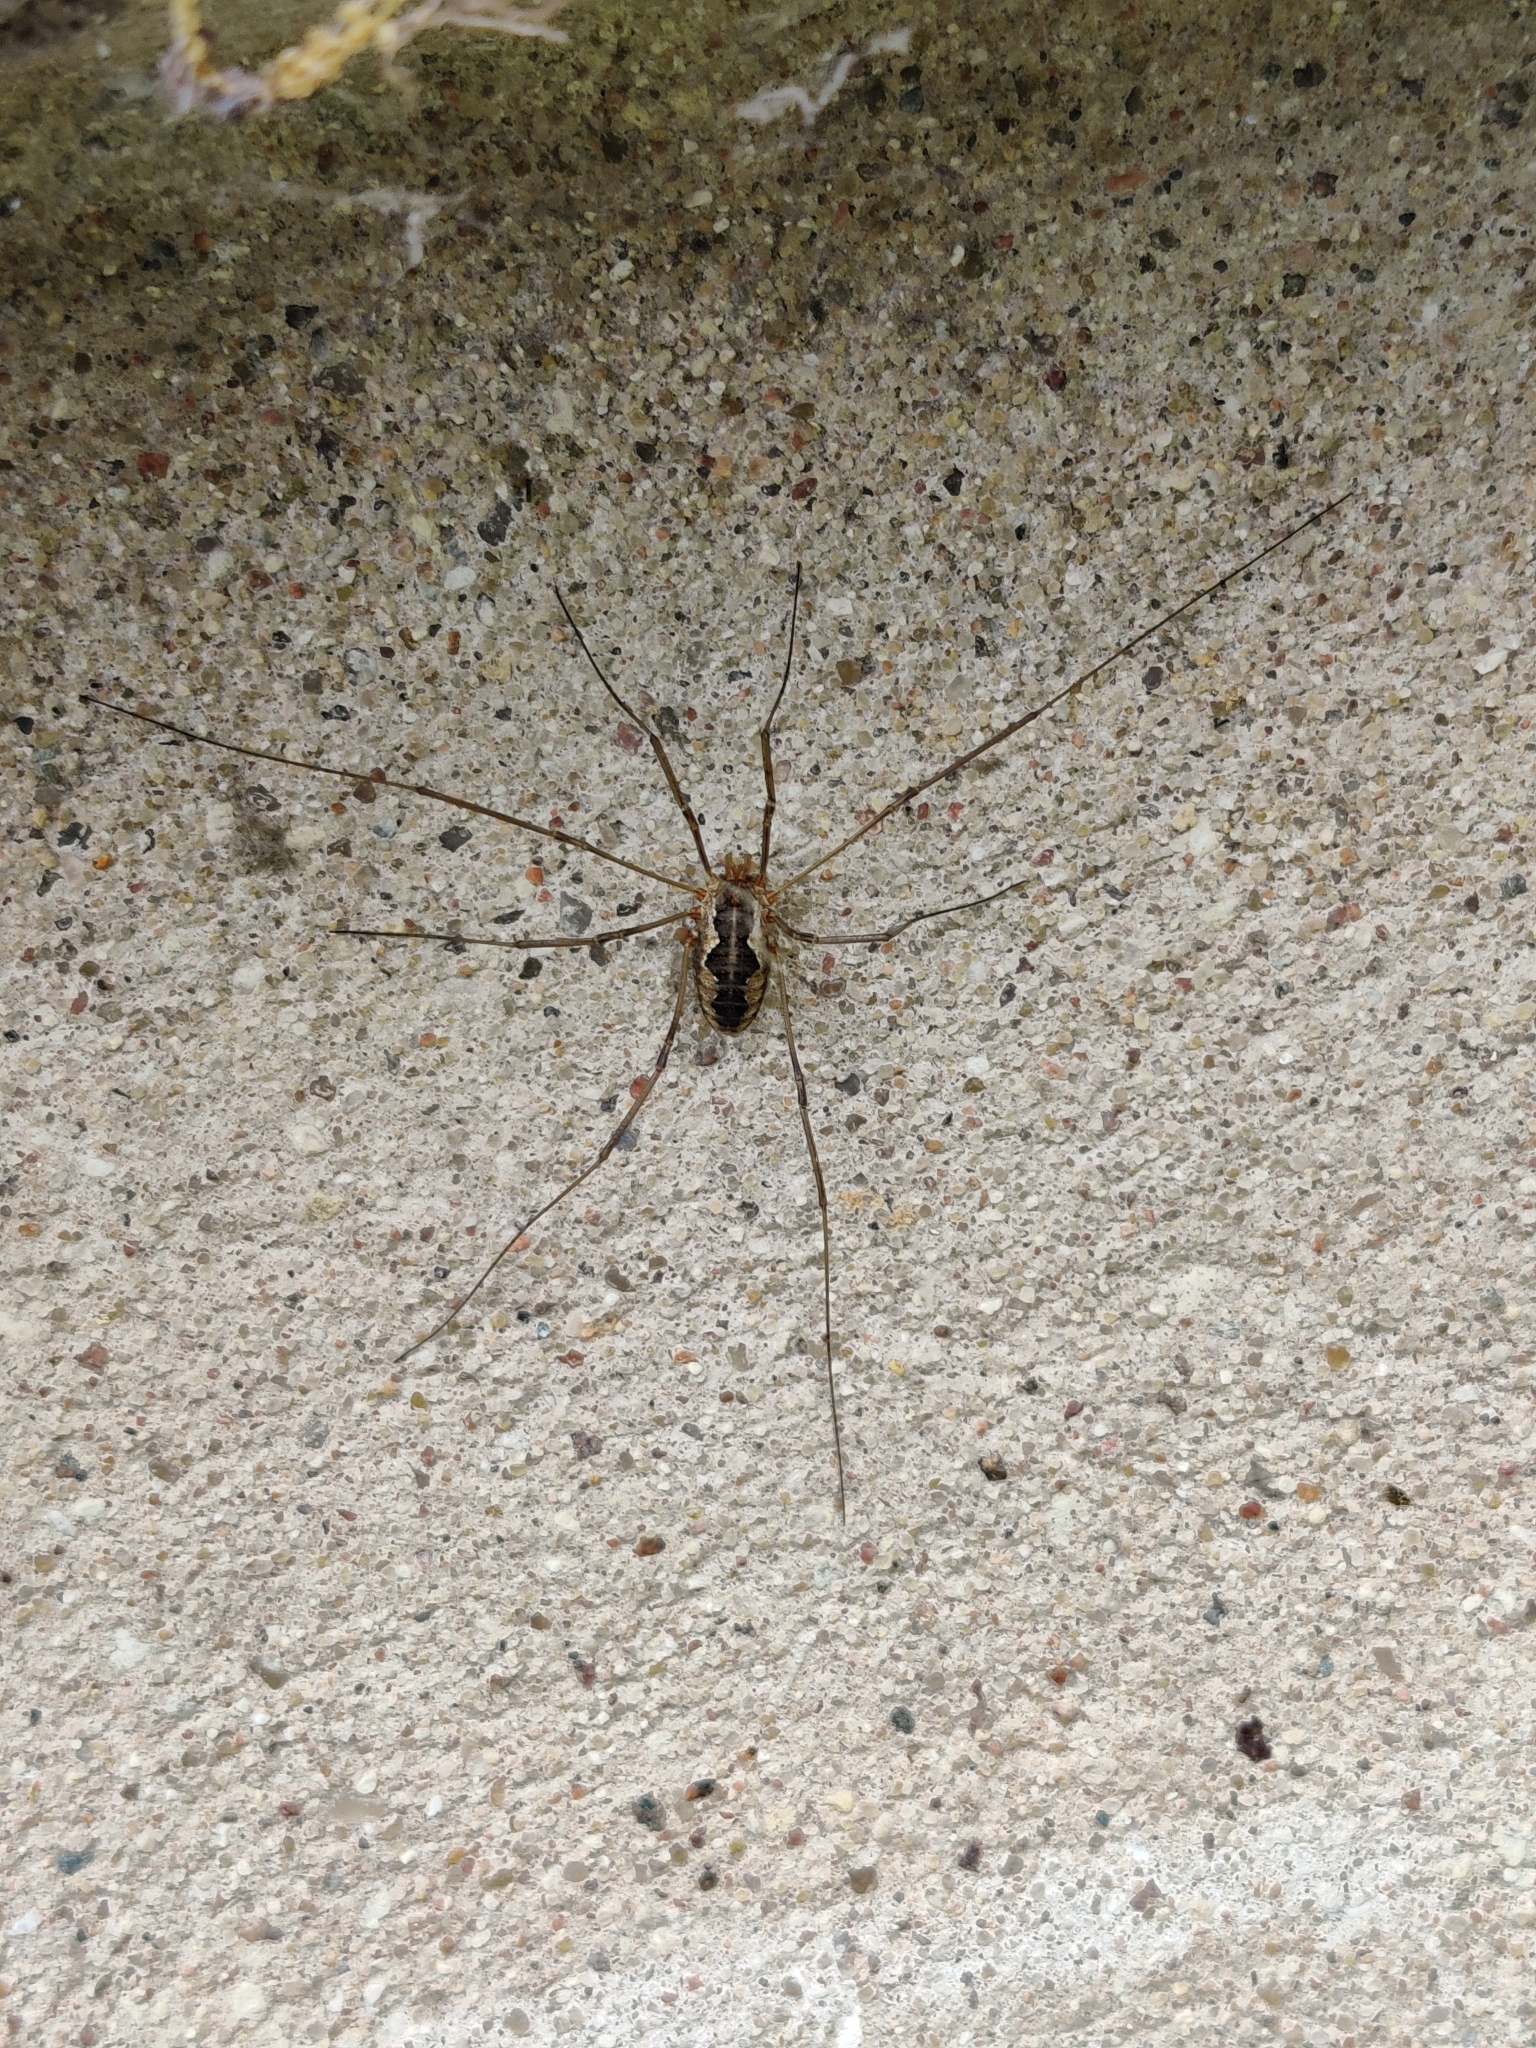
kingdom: Animalia
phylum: Arthropoda
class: Arachnida
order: Opiliones
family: Phalangiidae
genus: Phalangium
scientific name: Phalangium opilio
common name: Daddy longleg
